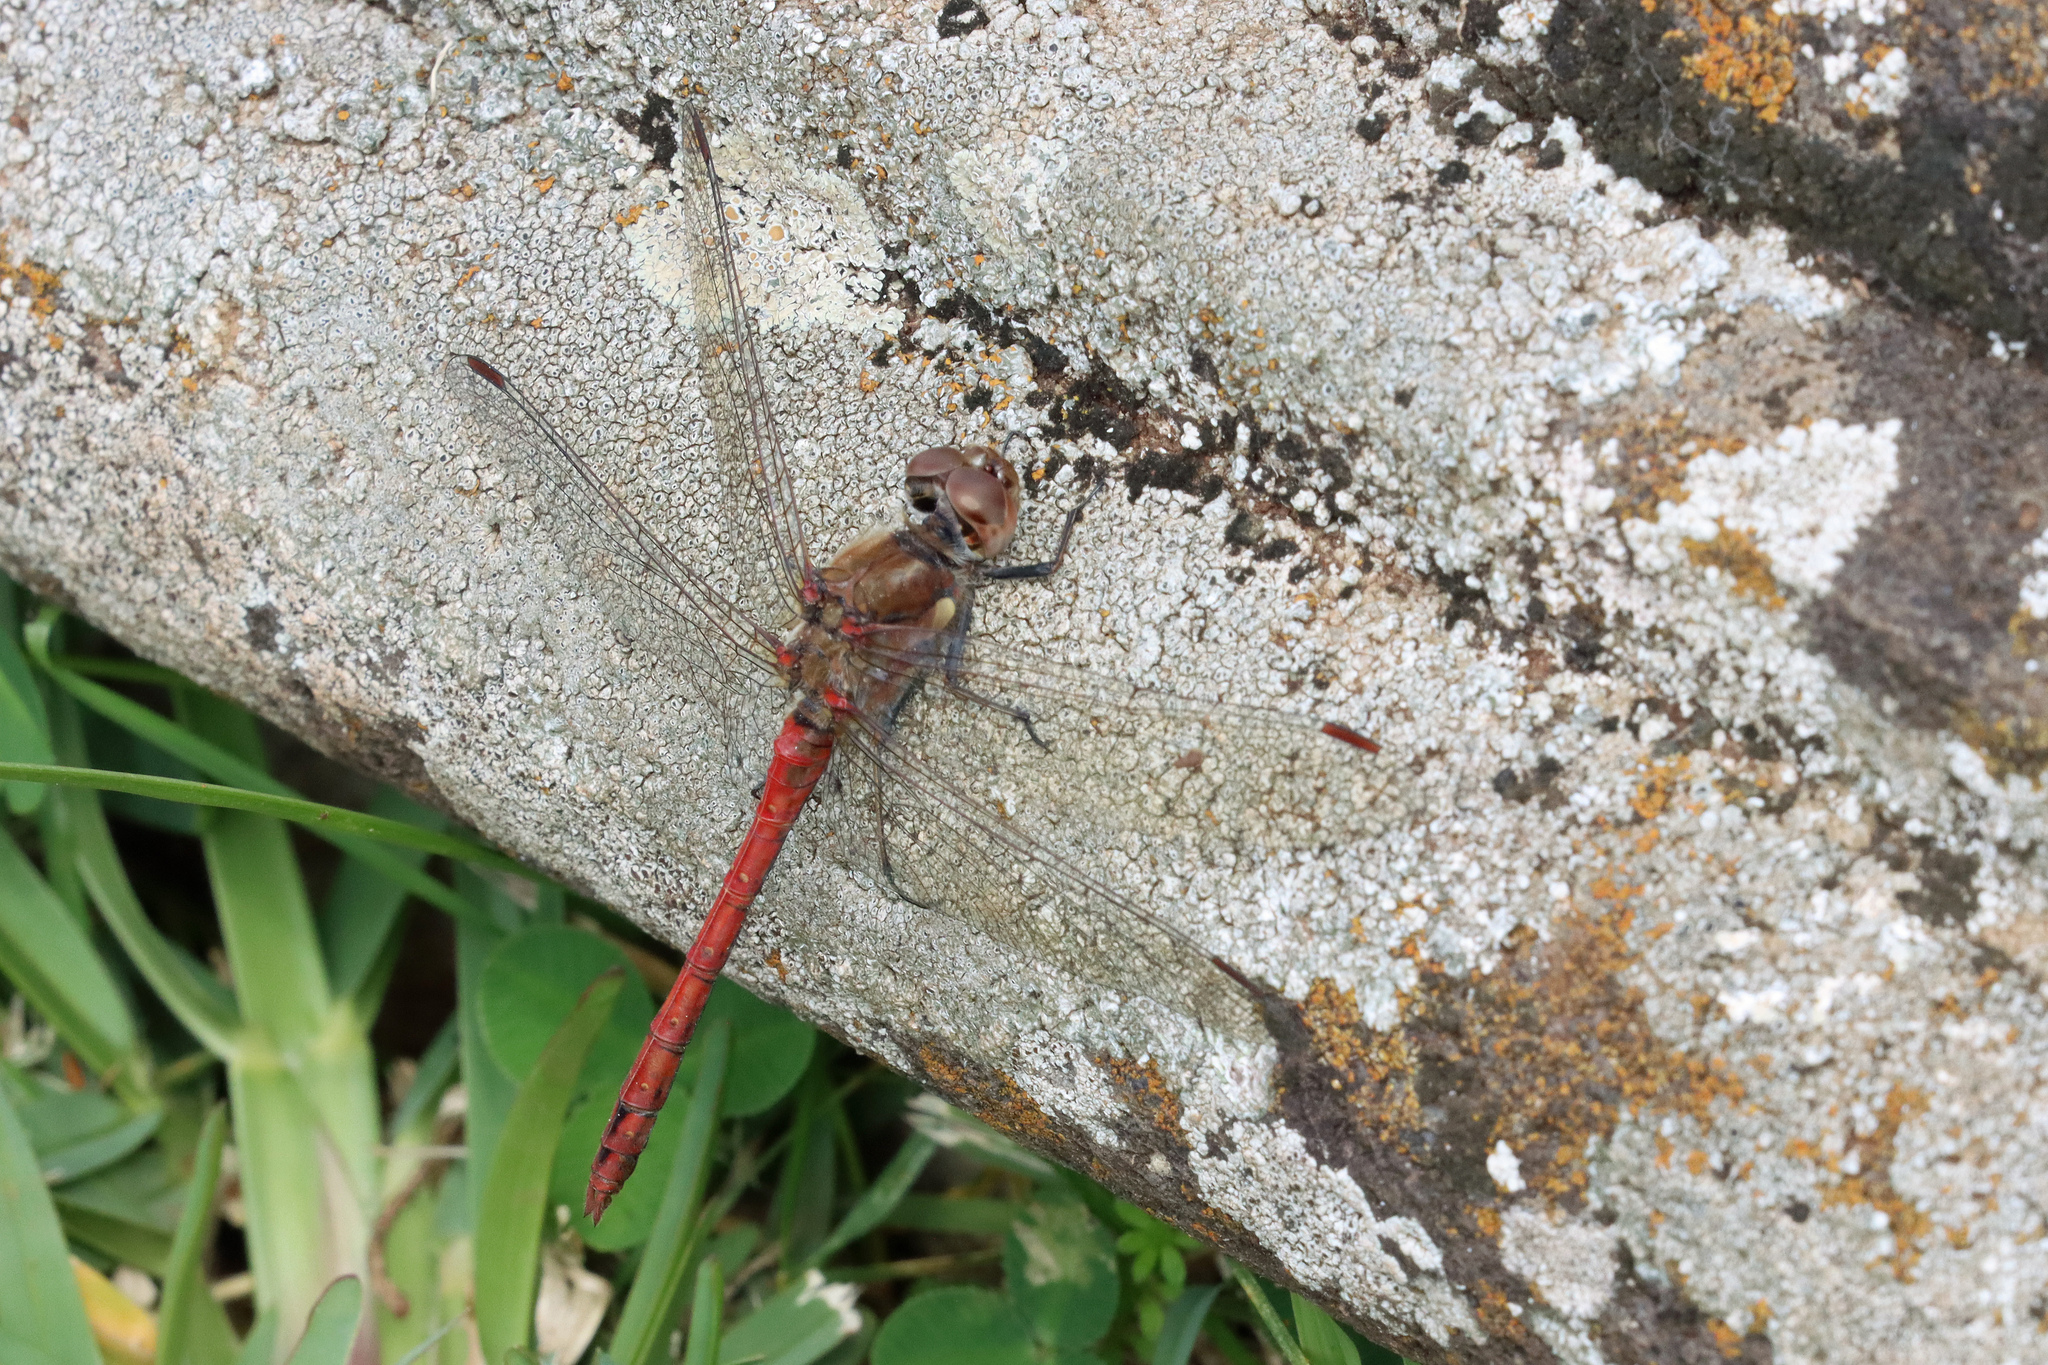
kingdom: Animalia
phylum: Arthropoda
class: Insecta
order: Odonata
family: Libellulidae
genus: Sympetrum
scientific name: Sympetrum nigrifemur
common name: Island darter
